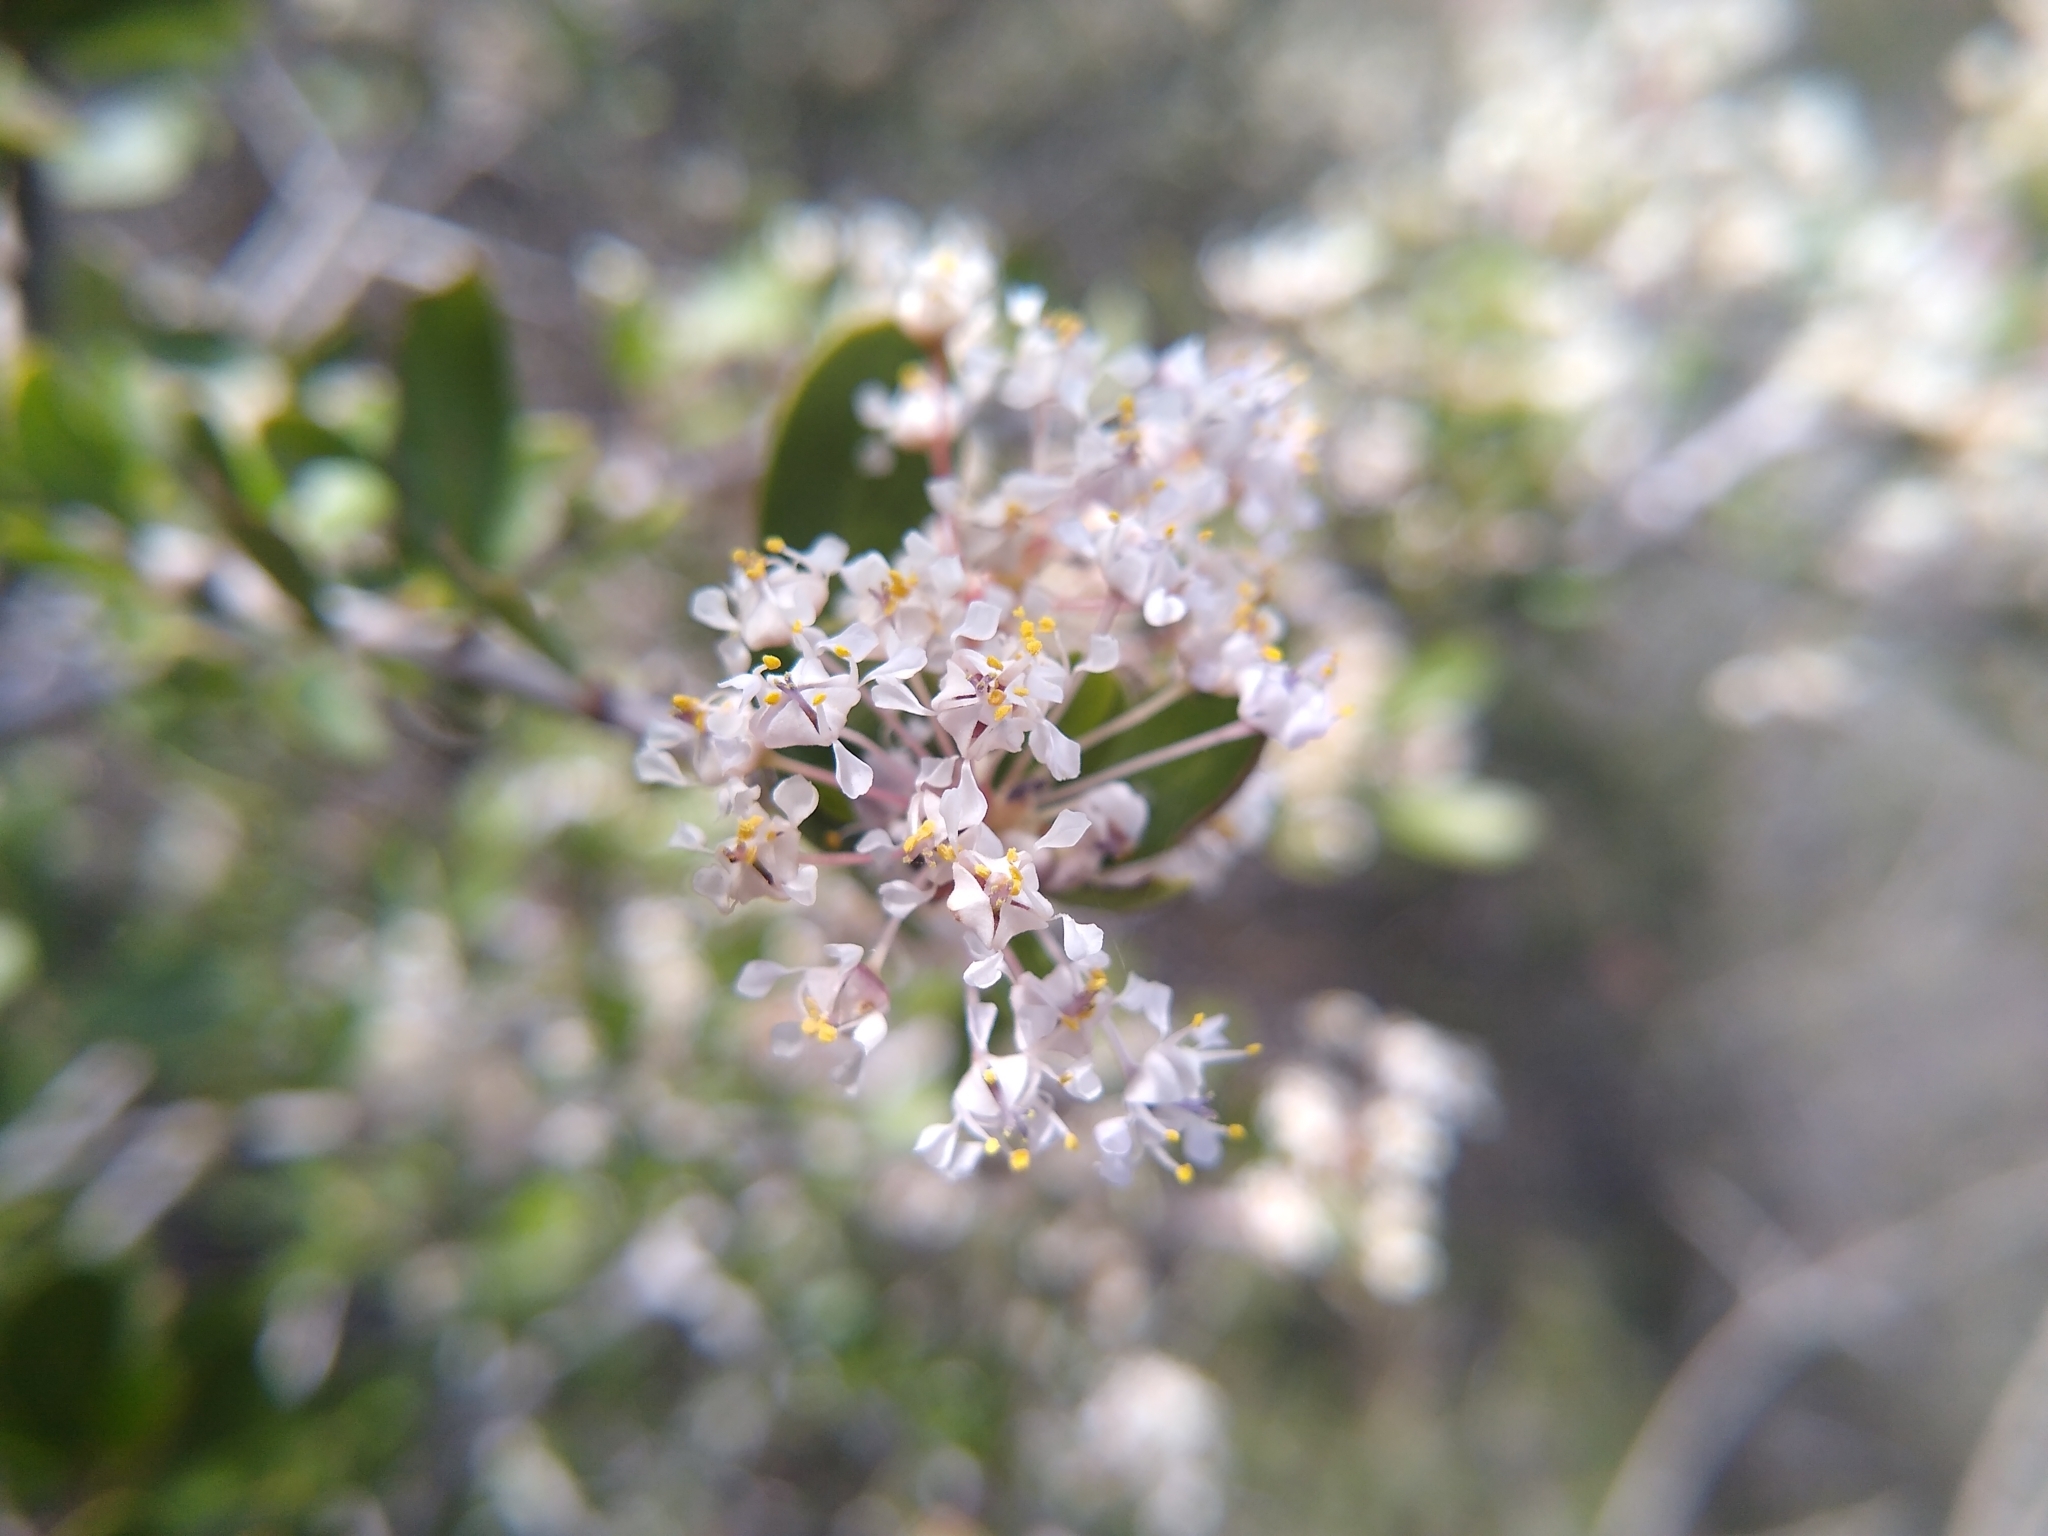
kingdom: Plantae
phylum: Tracheophyta
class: Magnoliopsida
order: Rosales
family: Rhamnaceae
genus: Ceanothus
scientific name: Ceanothus cuneatus
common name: Cuneate ceanothus
